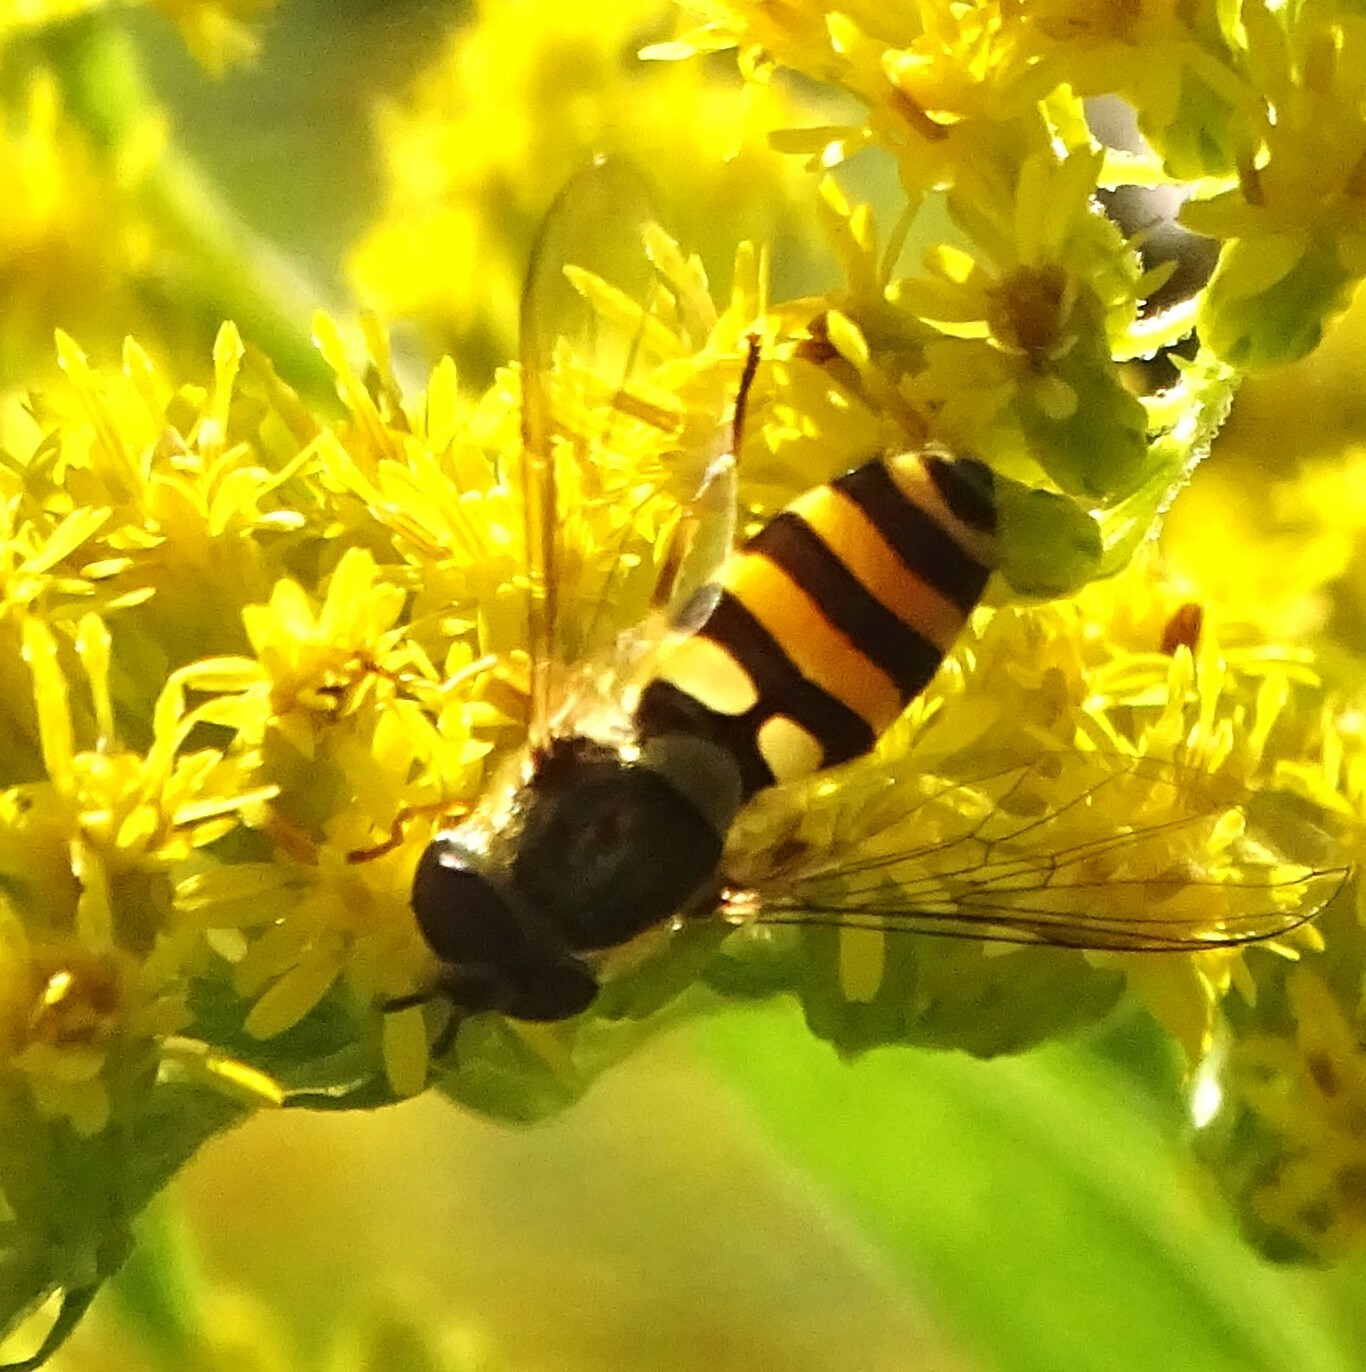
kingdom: Animalia
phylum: Arthropoda
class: Insecta
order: Diptera
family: Syrphidae
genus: Syrphus
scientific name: Syrphus rectus
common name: Yellow-legged flower fly
